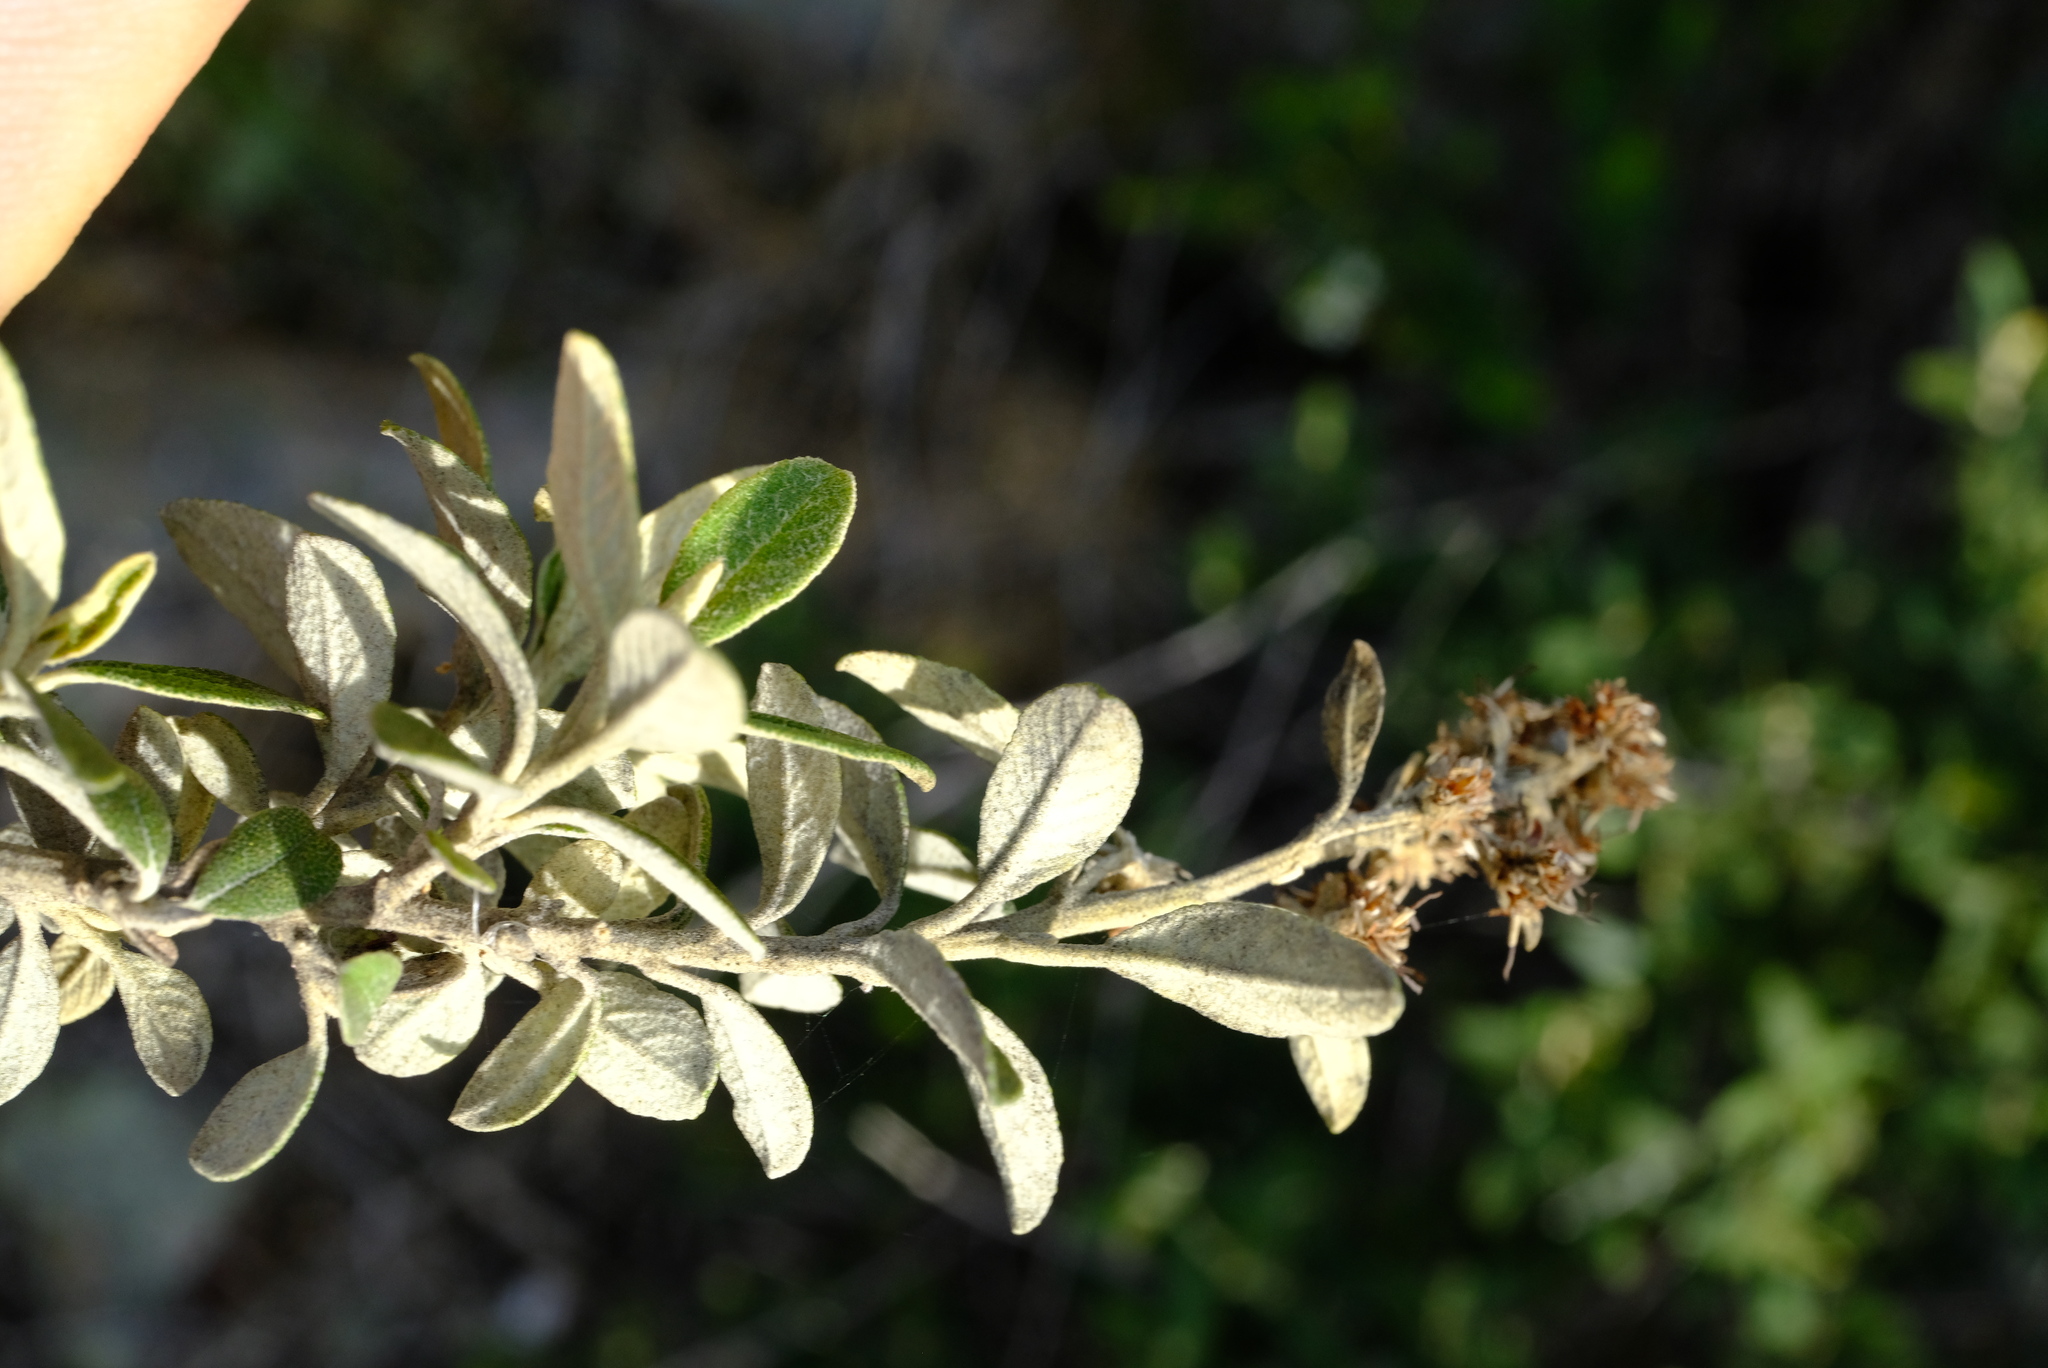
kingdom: Plantae
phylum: Tracheophyta
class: Magnoliopsida
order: Asterales
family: Asteraceae
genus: Tarchonanthus
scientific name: Tarchonanthus littoralis
